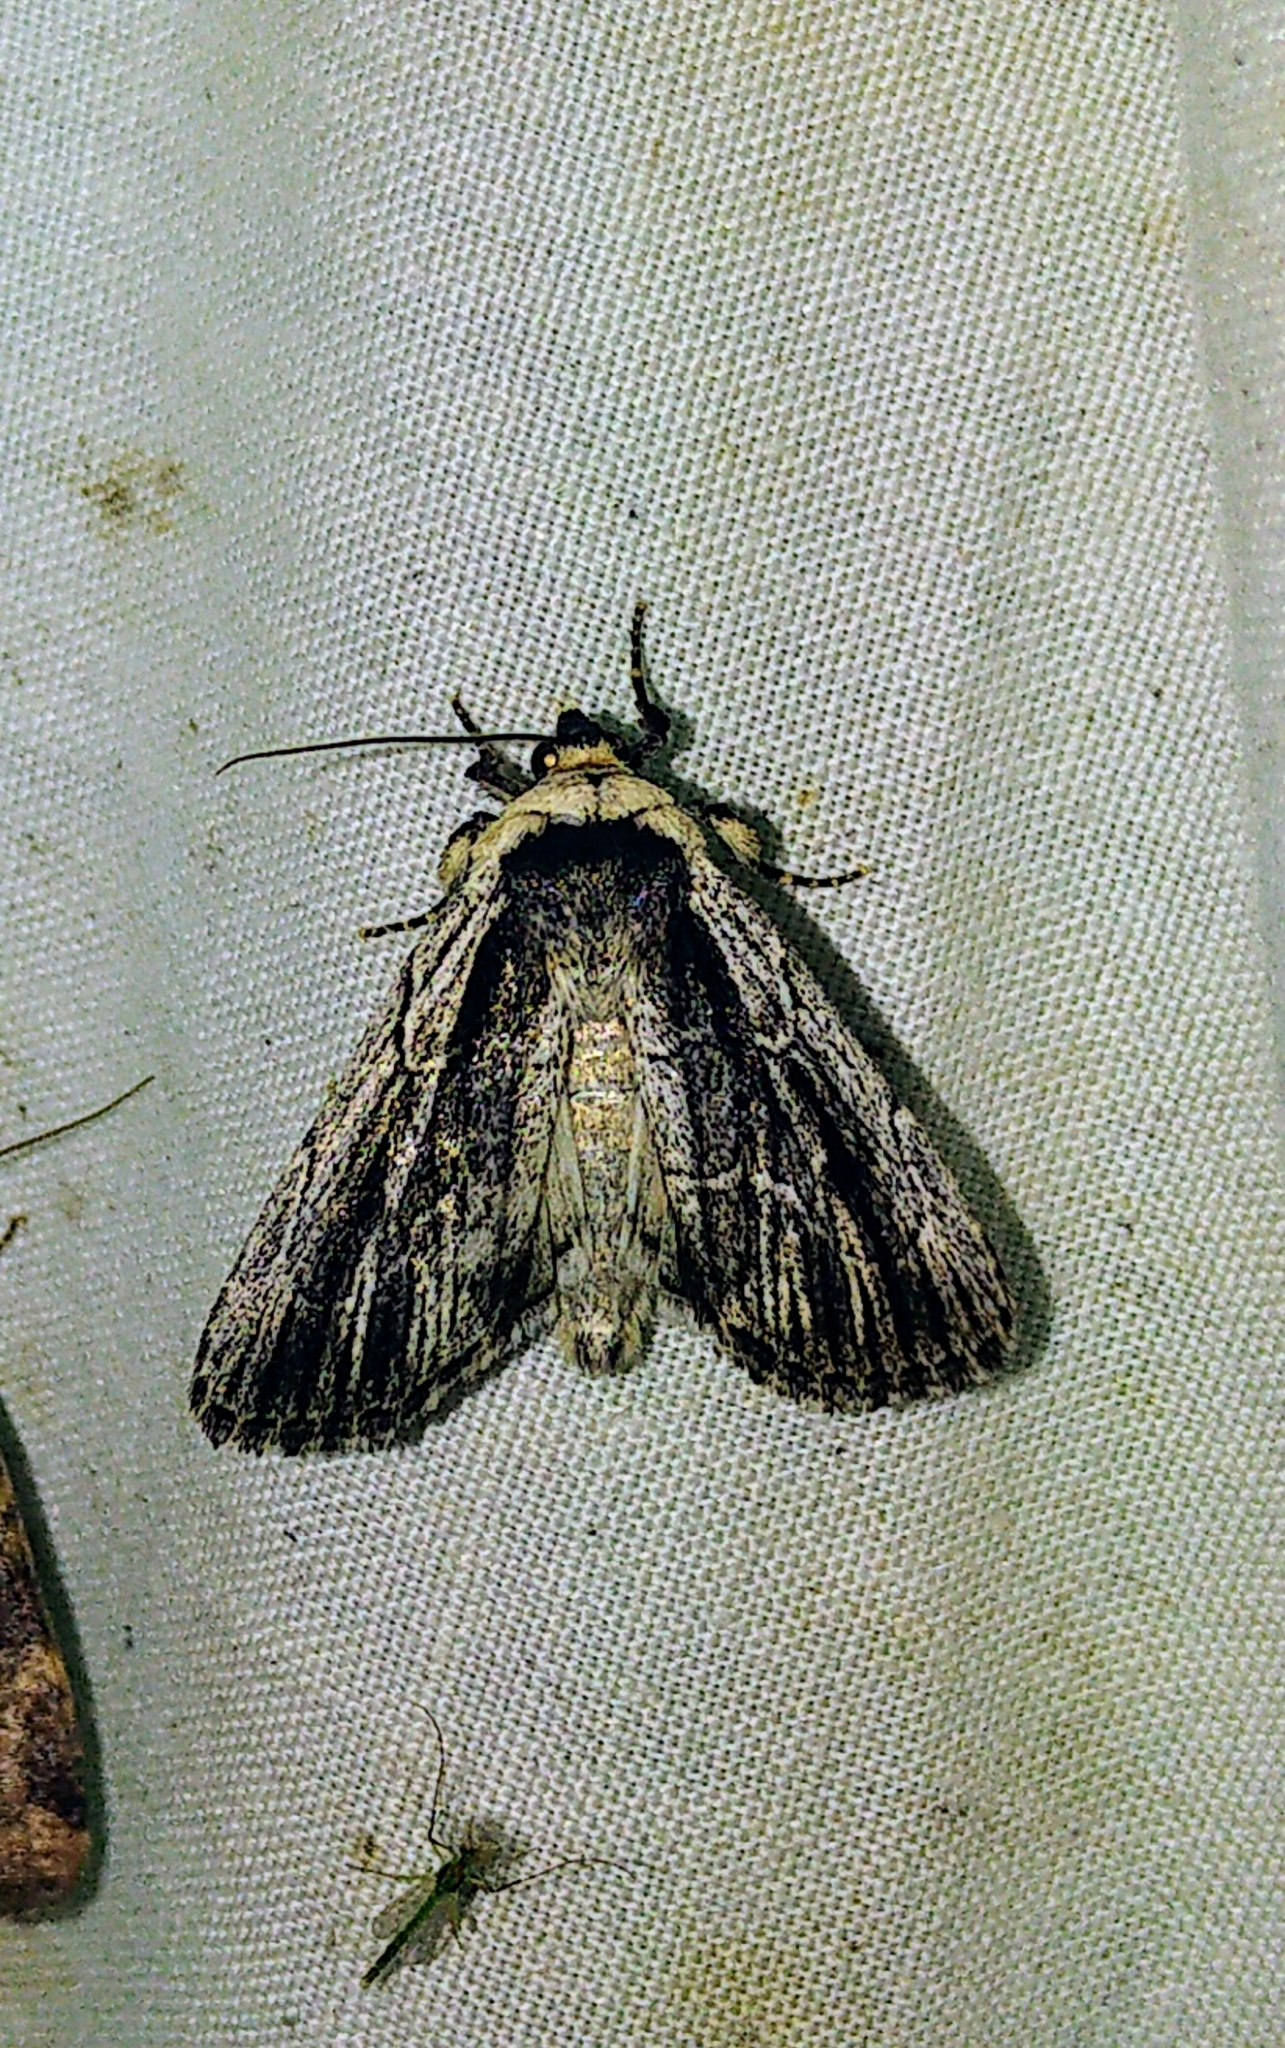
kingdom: Animalia
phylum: Arthropoda
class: Insecta
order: Lepidoptera
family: Noctuidae
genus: Sympistis
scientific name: Sympistis badistriga
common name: Brown-lined sallow moth
